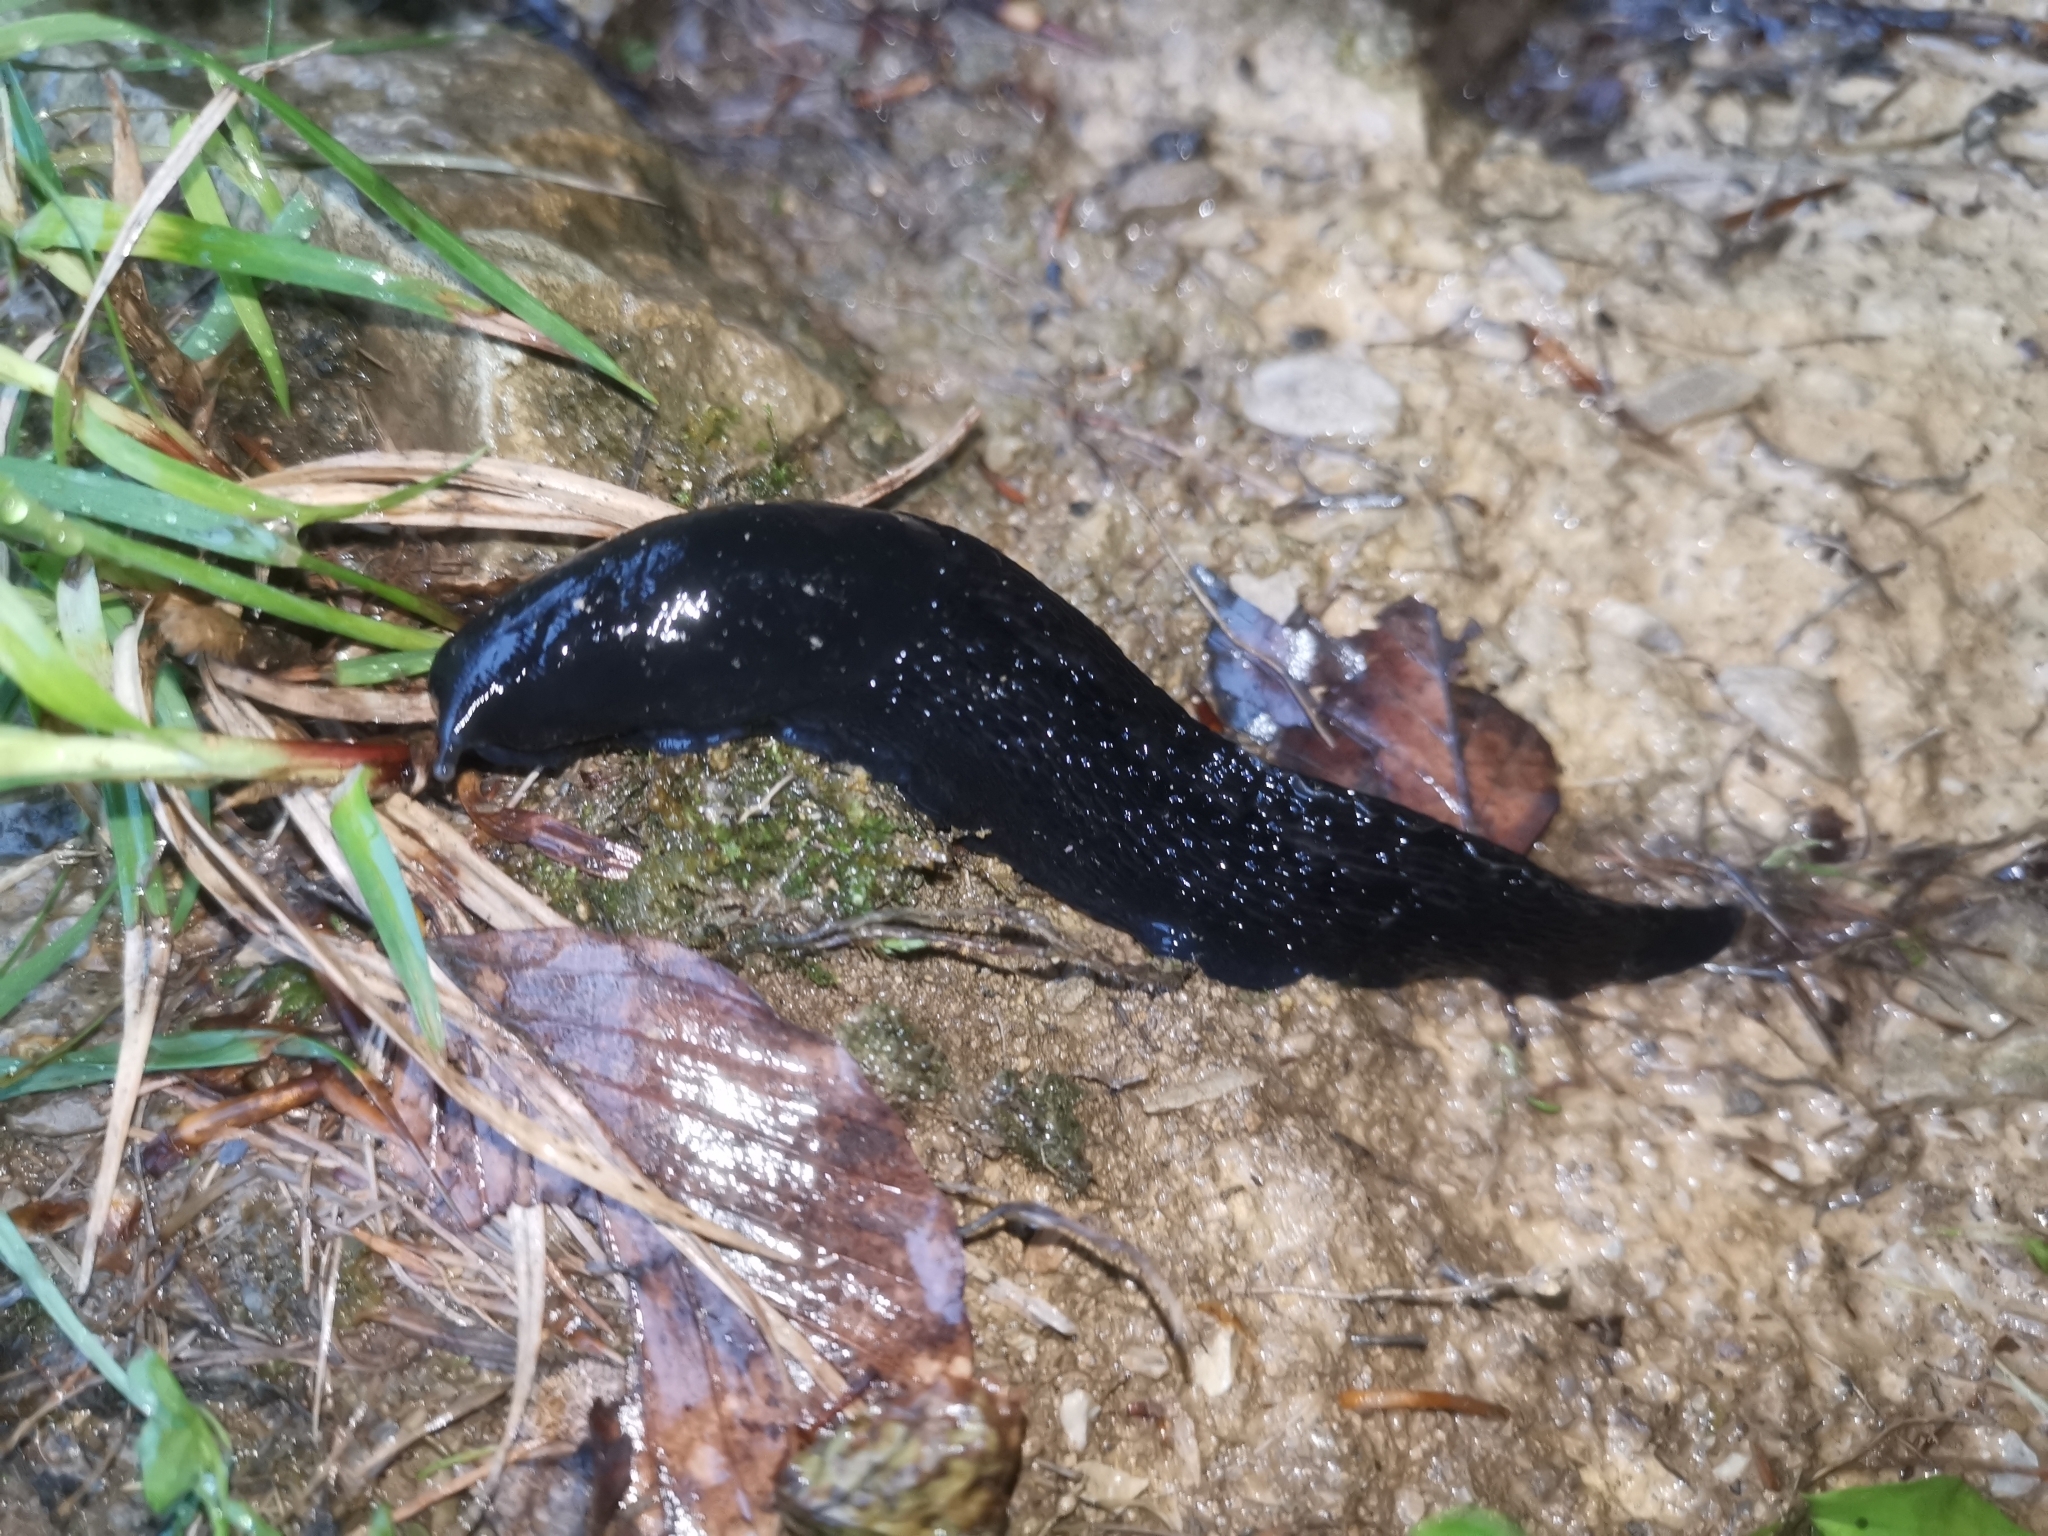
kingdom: Animalia
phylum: Mollusca
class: Gastropoda
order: Stylommatophora
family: Limacidae
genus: Limax
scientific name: Limax cinereoniger
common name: Ash-black slug
